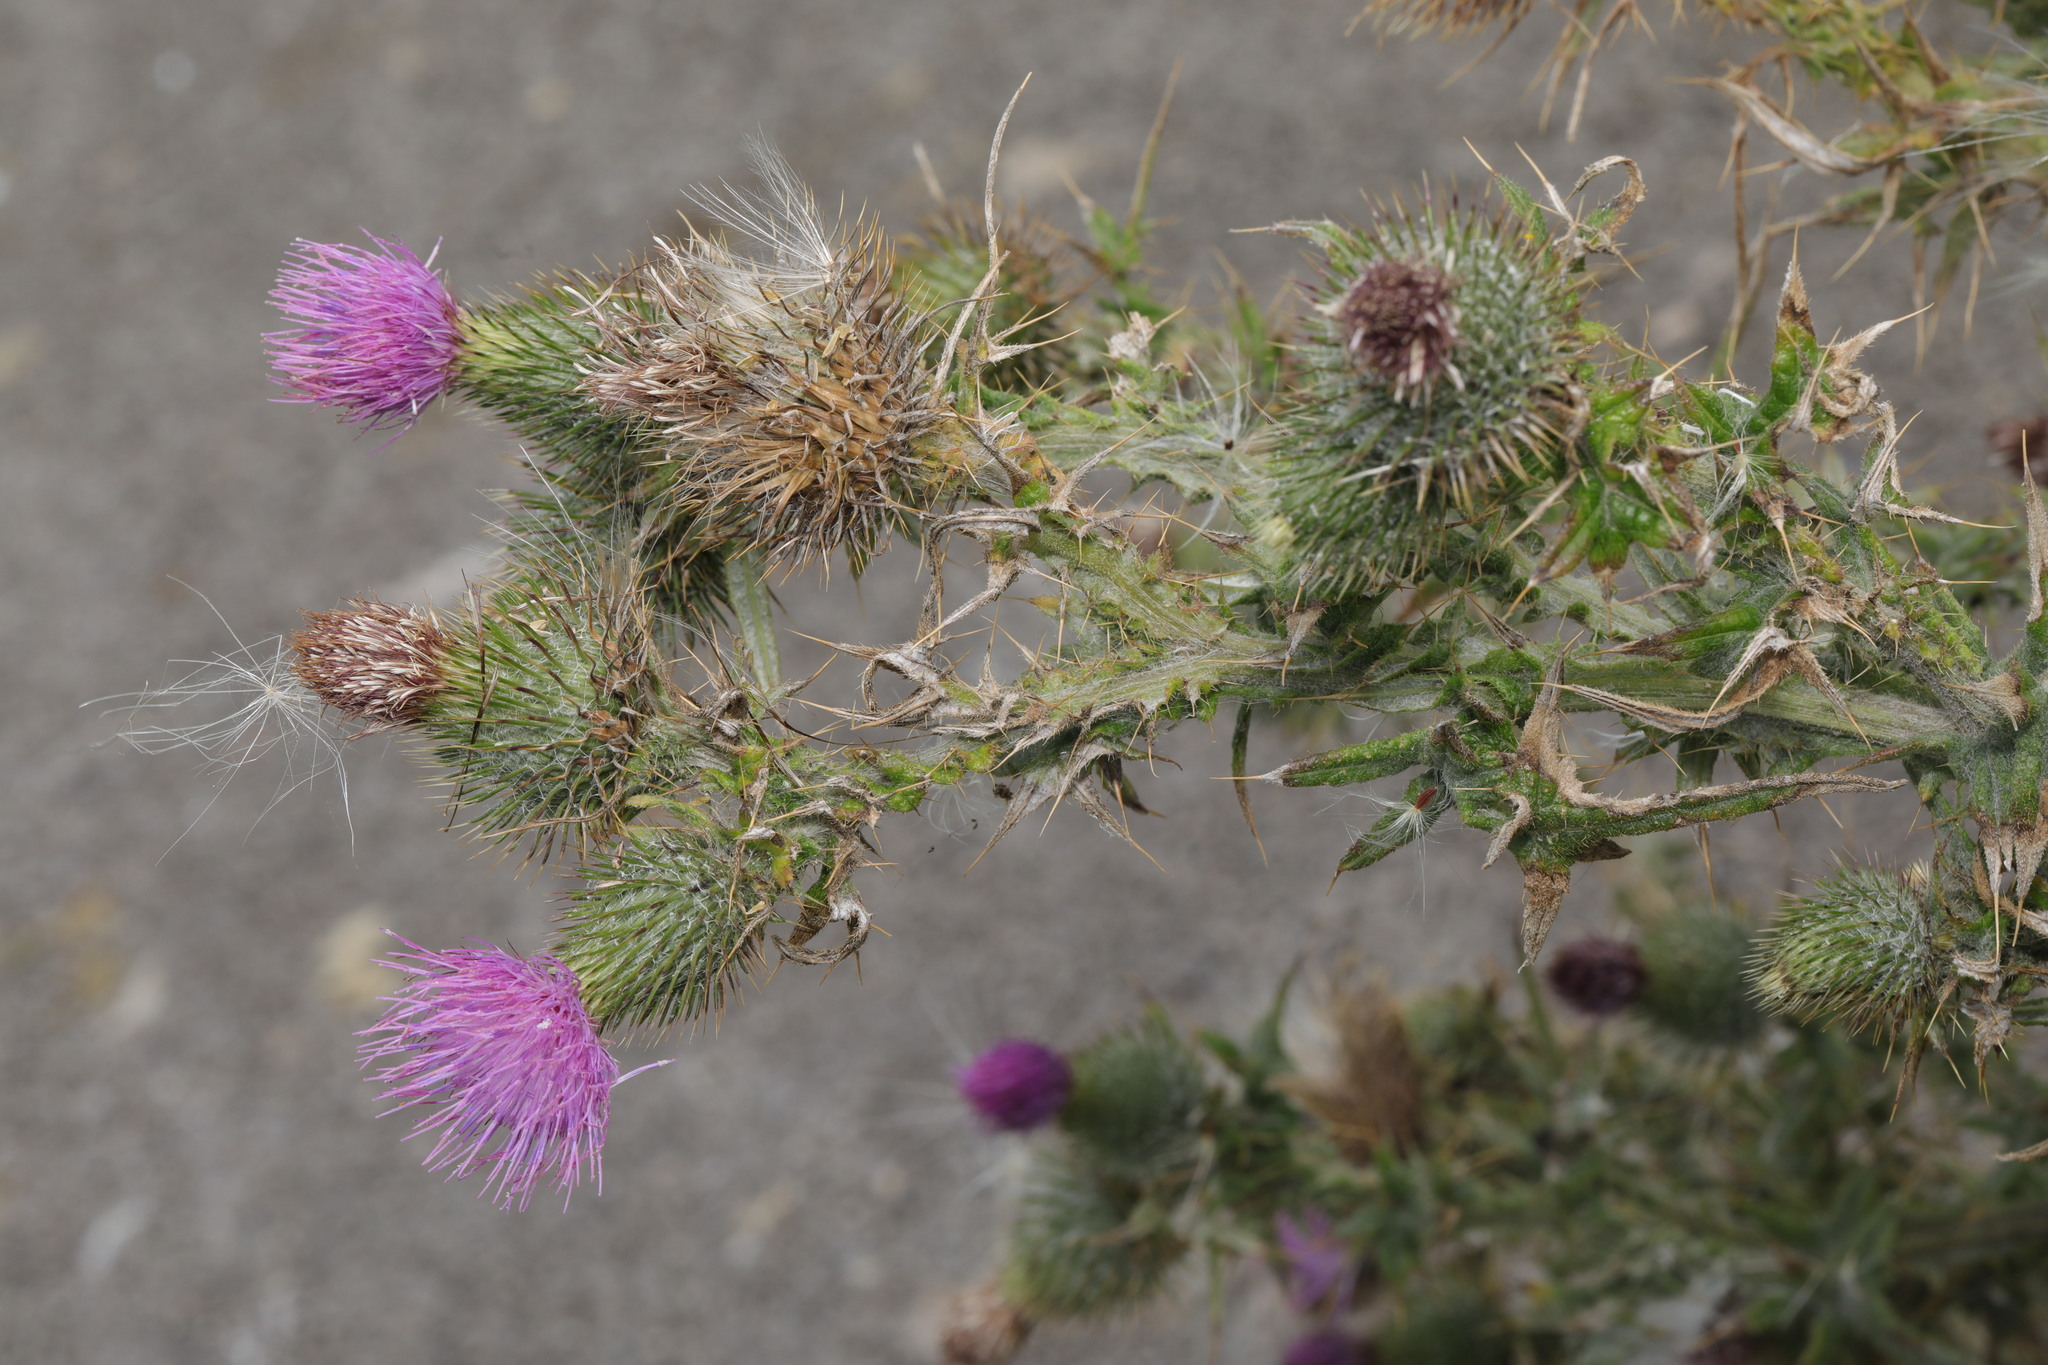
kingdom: Plantae
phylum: Tracheophyta
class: Magnoliopsida
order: Asterales
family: Asteraceae
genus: Cirsium
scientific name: Cirsium vulgare
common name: Bull thistle
